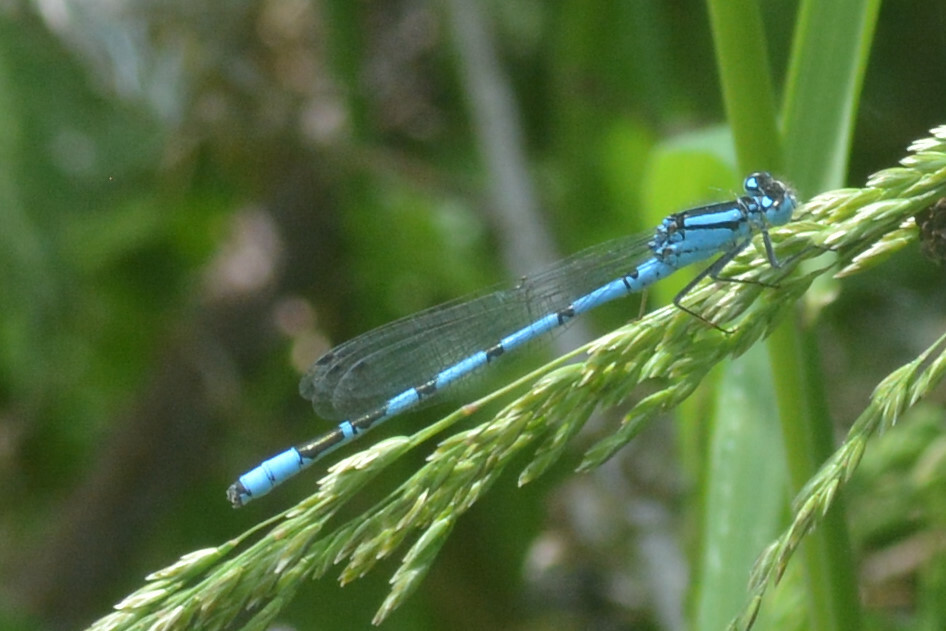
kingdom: Animalia
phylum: Arthropoda
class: Insecta
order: Odonata
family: Coenagrionidae
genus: Enallagma
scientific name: Enallagma cyathigerum
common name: Common blue damselfly
